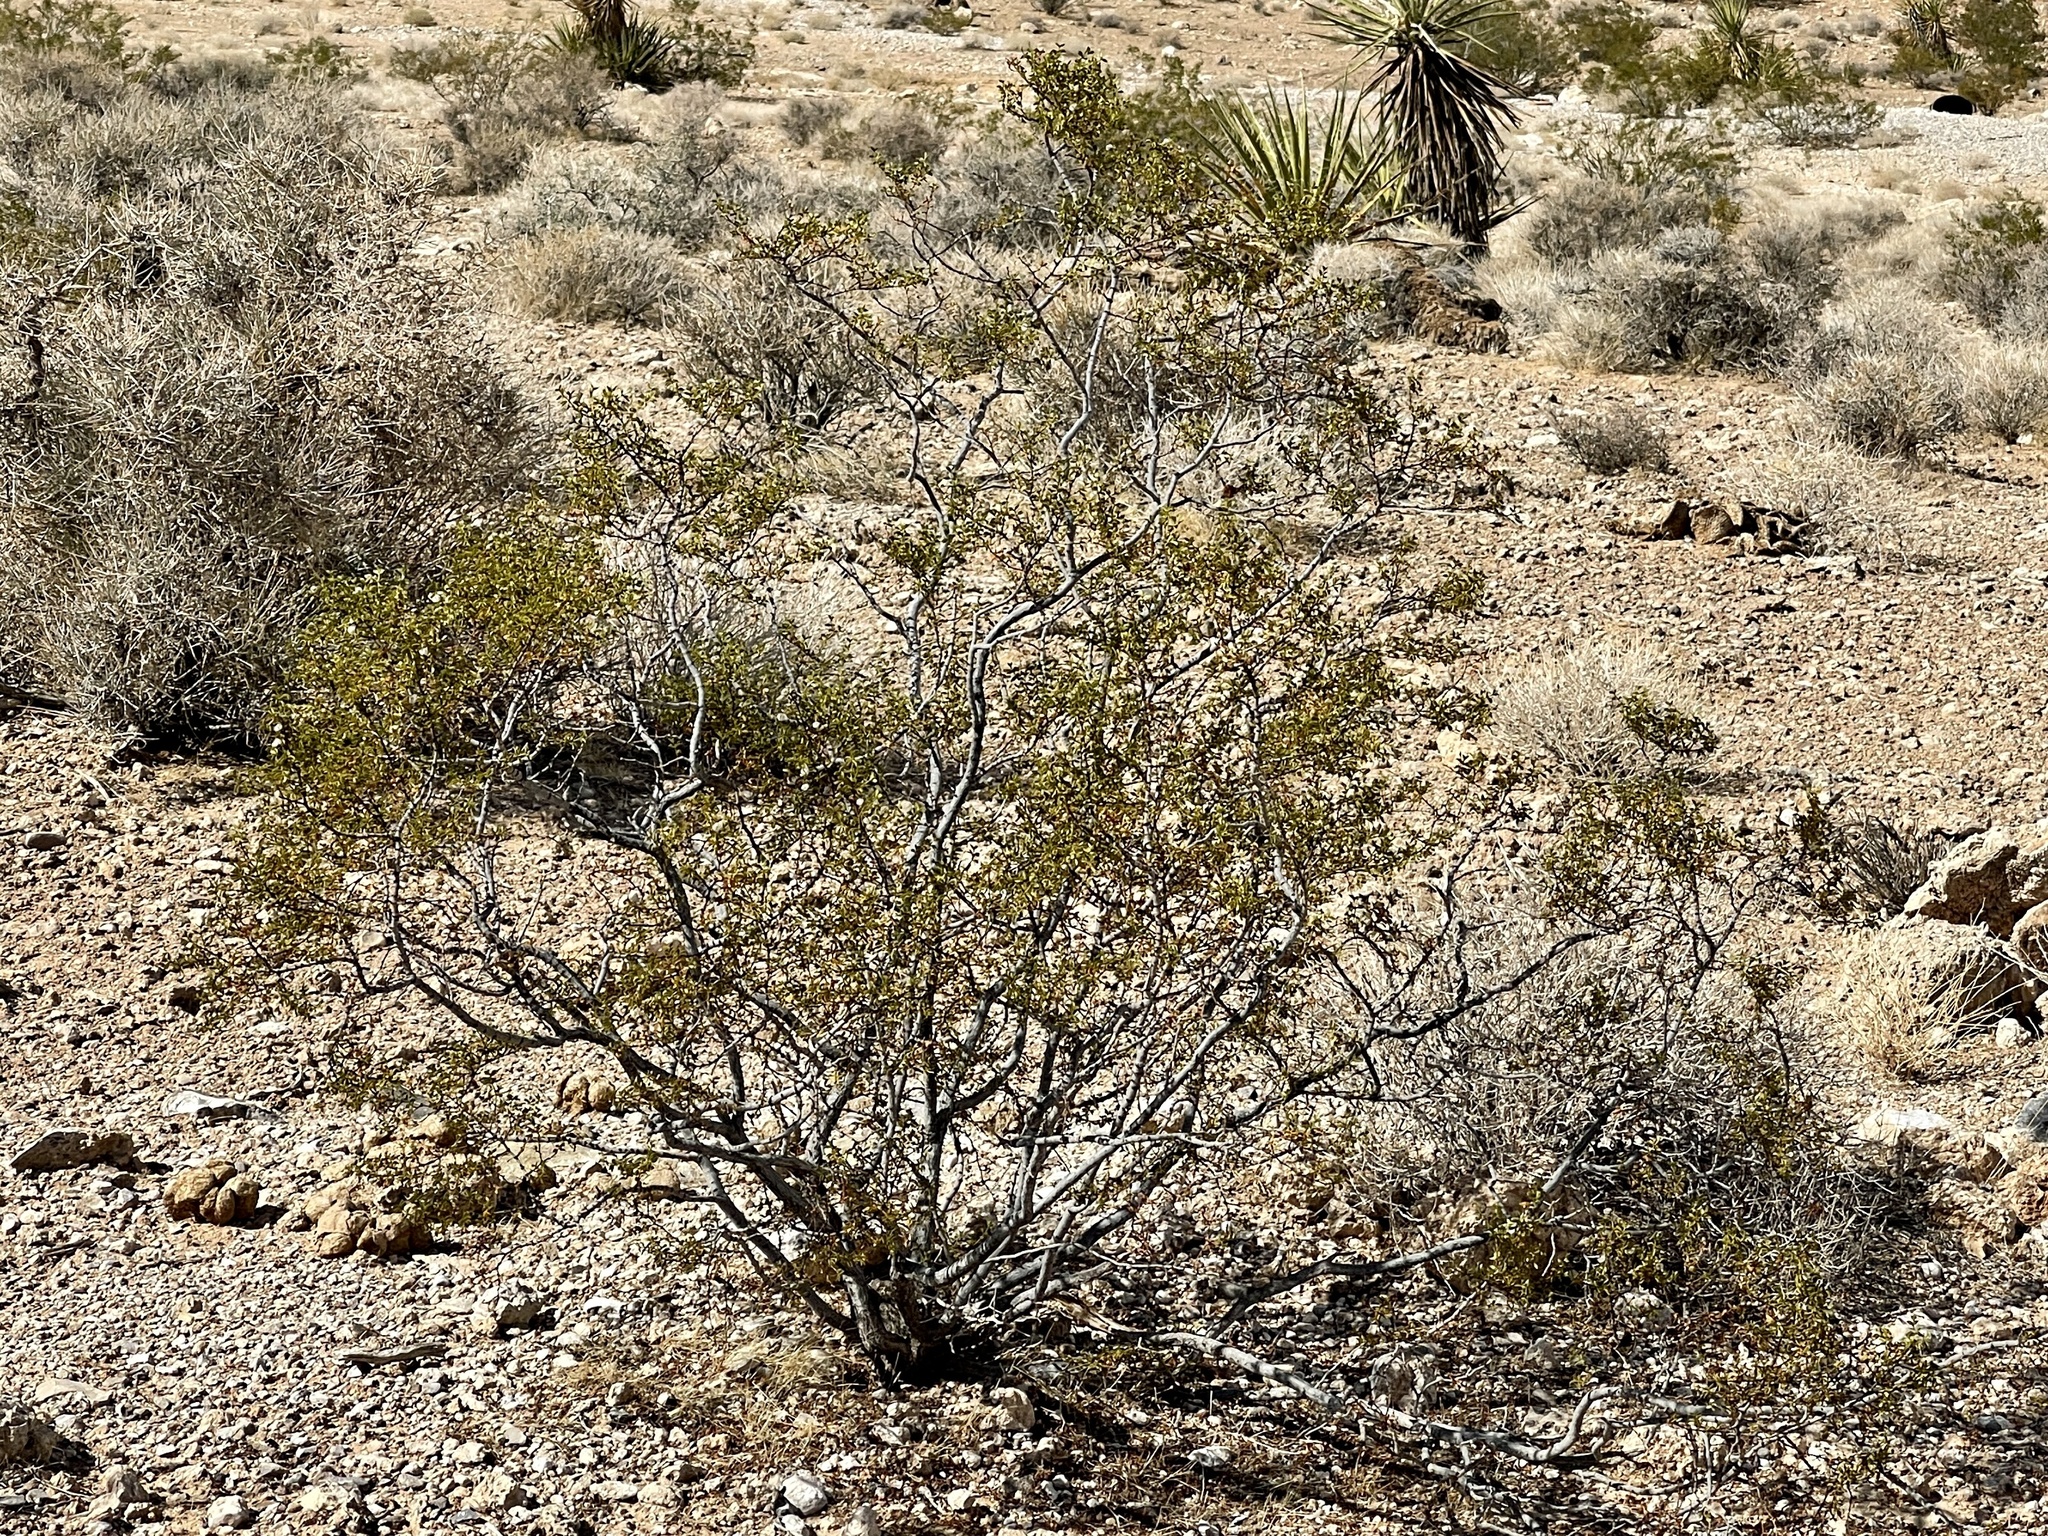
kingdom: Plantae
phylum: Tracheophyta
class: Magnoliopsida
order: Zygophyllales
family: Zygophyllaceae
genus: Larrea
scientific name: Larrea tridentata
